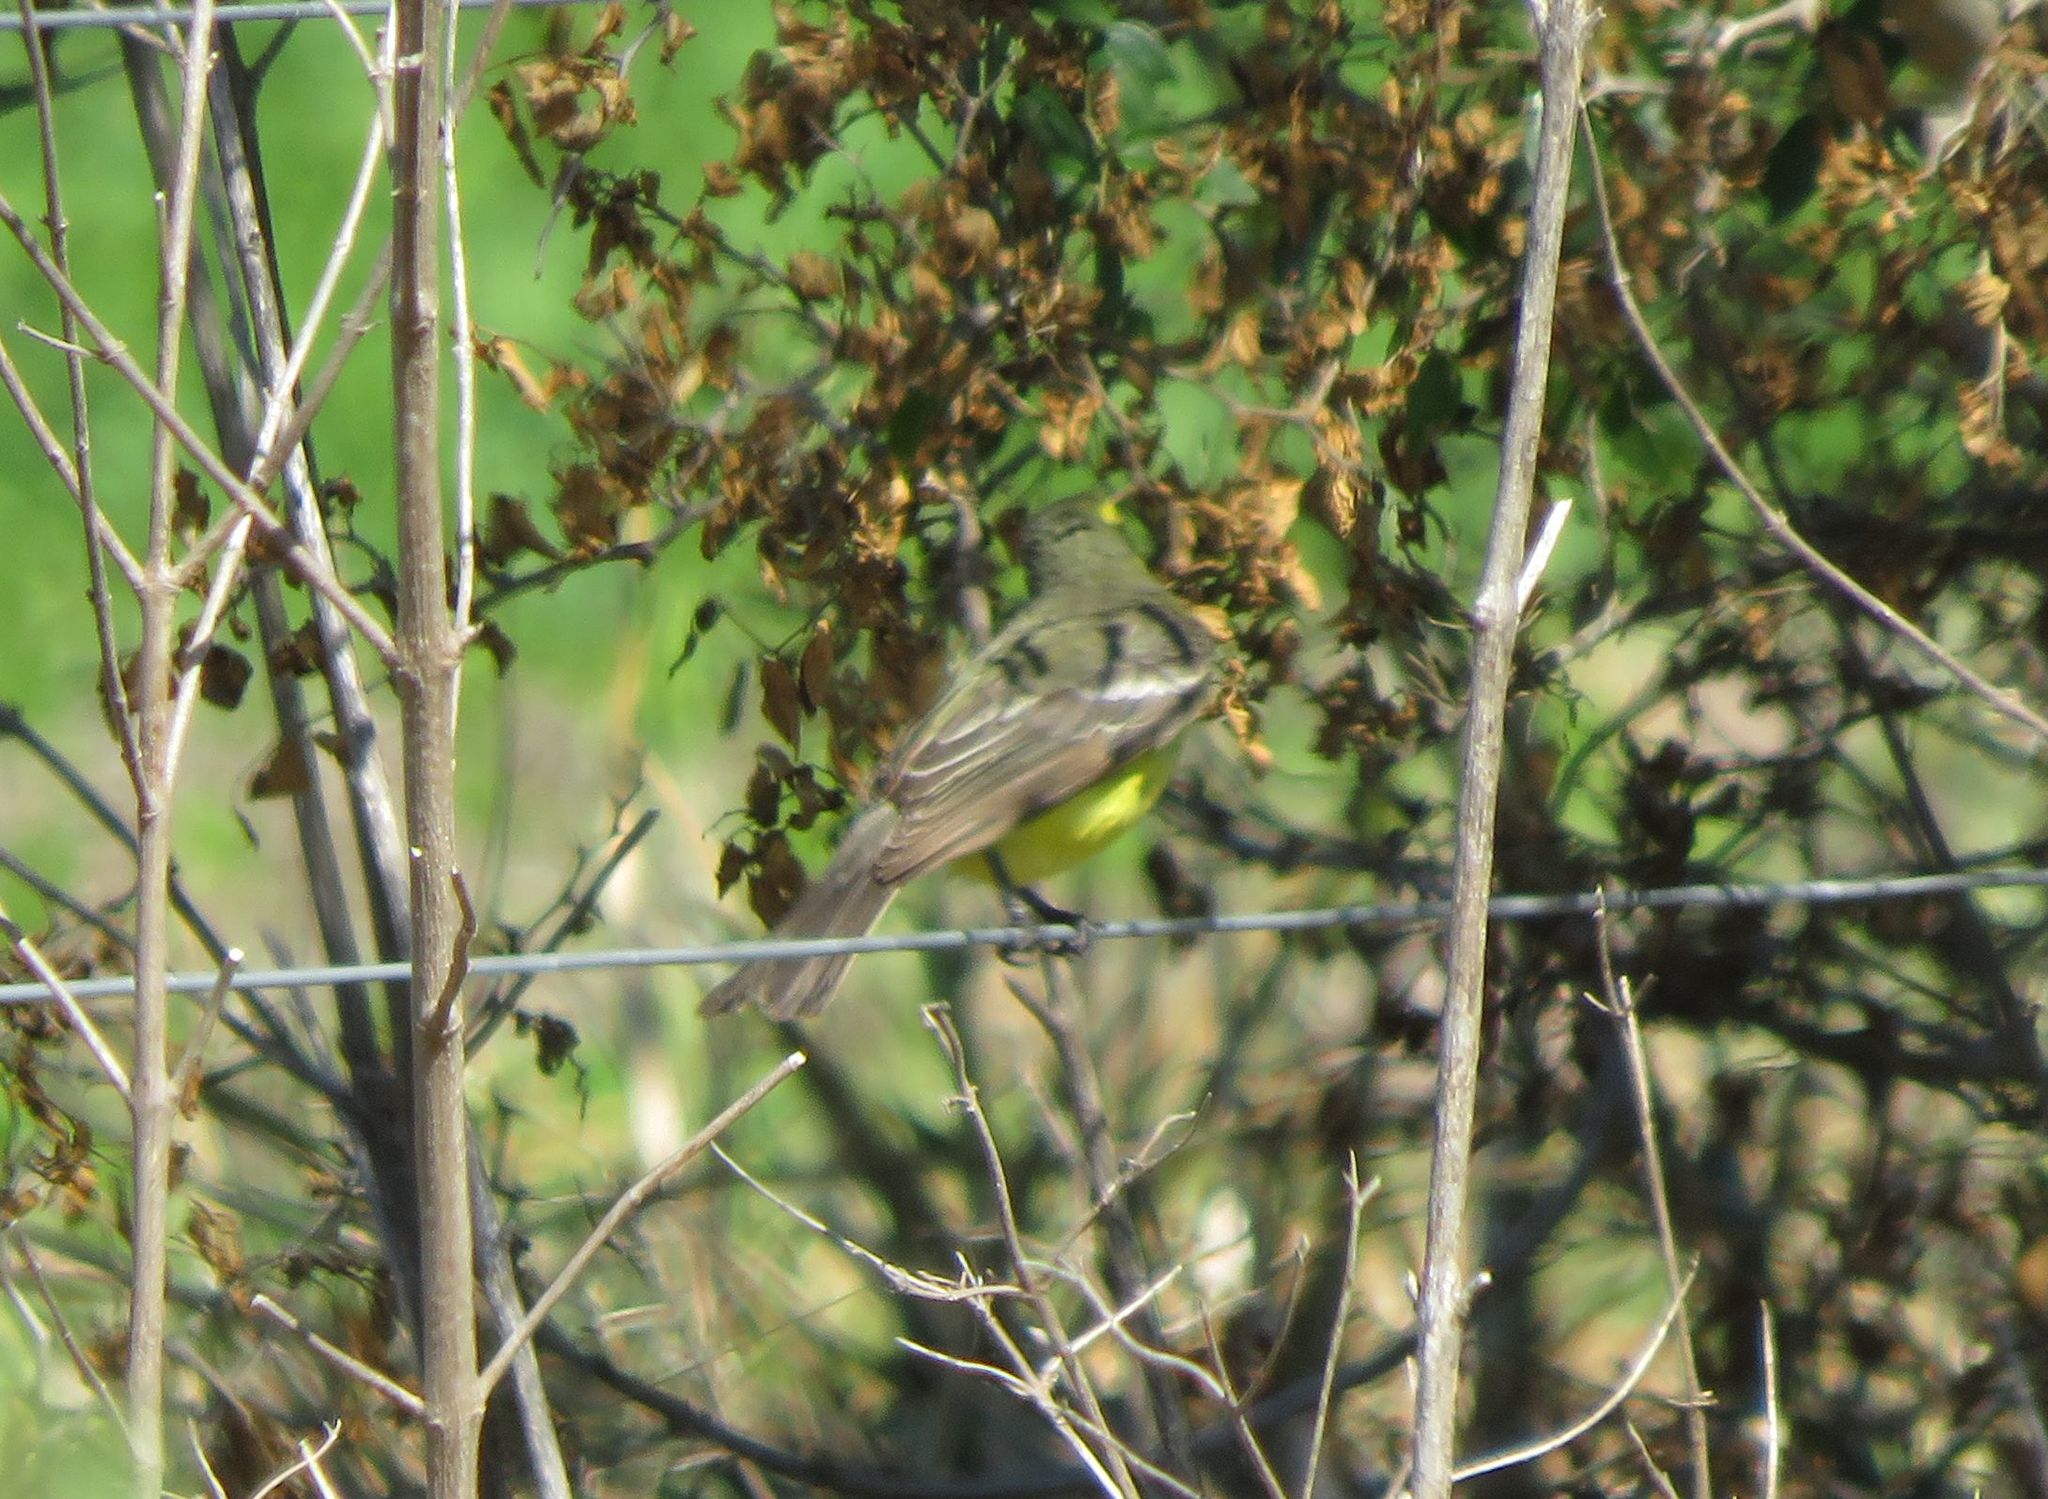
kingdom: Animalia
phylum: Chordata
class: Aves
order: Passeriformes
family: Tyrannidae
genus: Satrapa
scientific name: Satrapa icterophrys
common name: Yellow-browed tyrant
